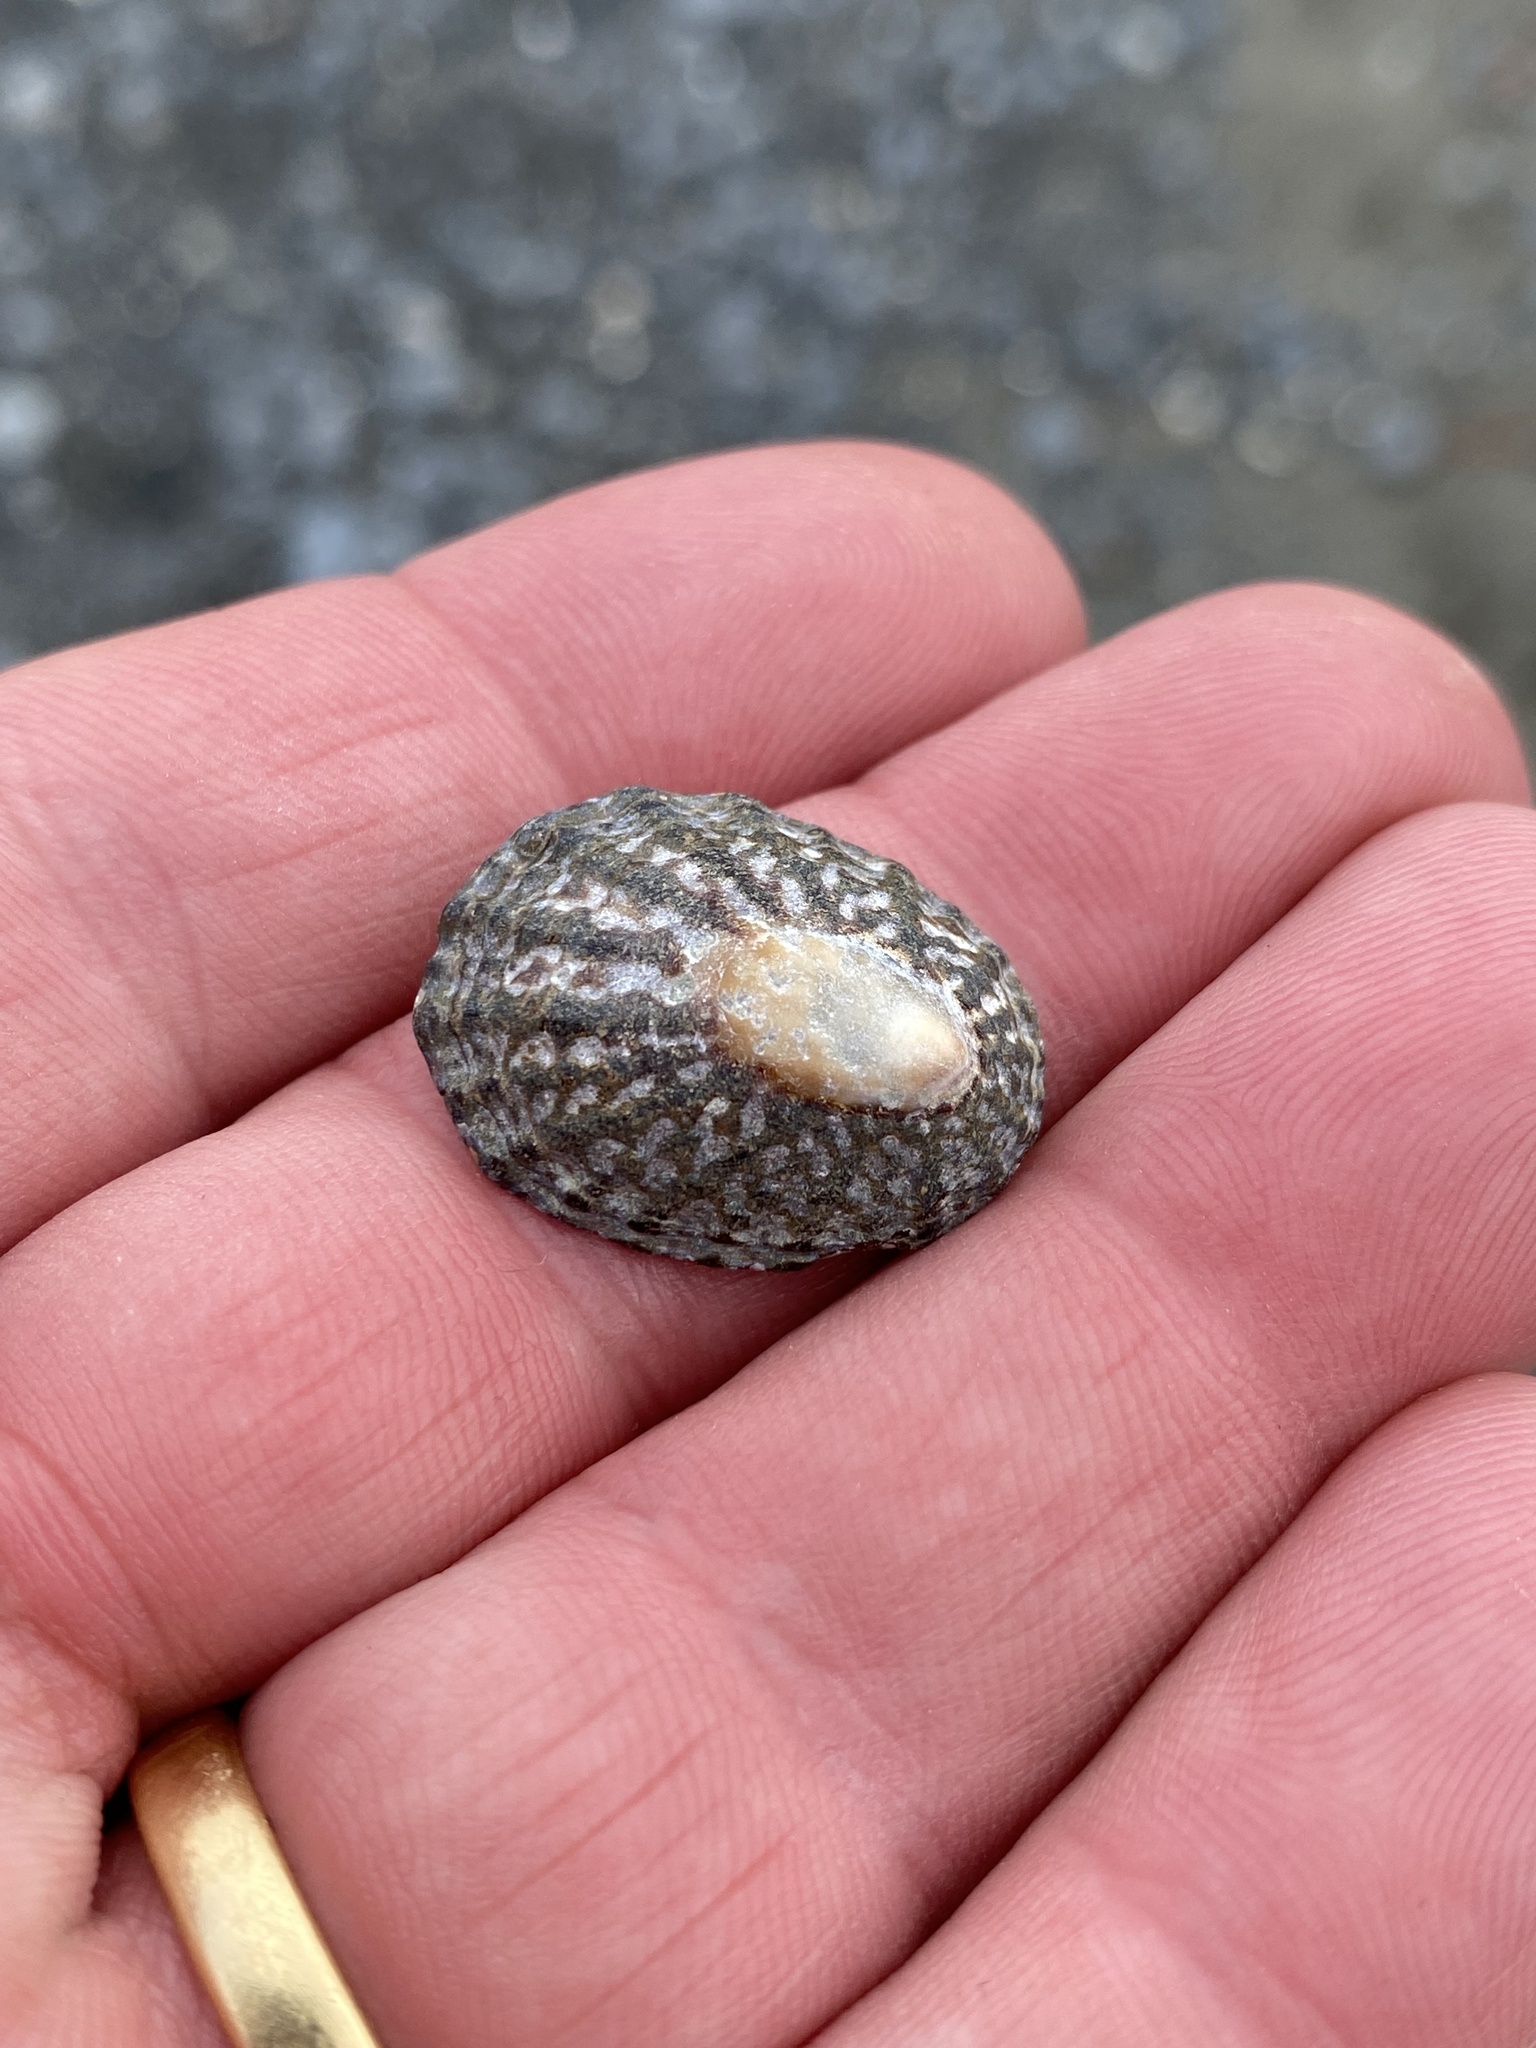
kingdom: Animalia
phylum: Mollusca
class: Gastropoda
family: Nacellidae
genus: Cellana
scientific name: Cellana denticulata
